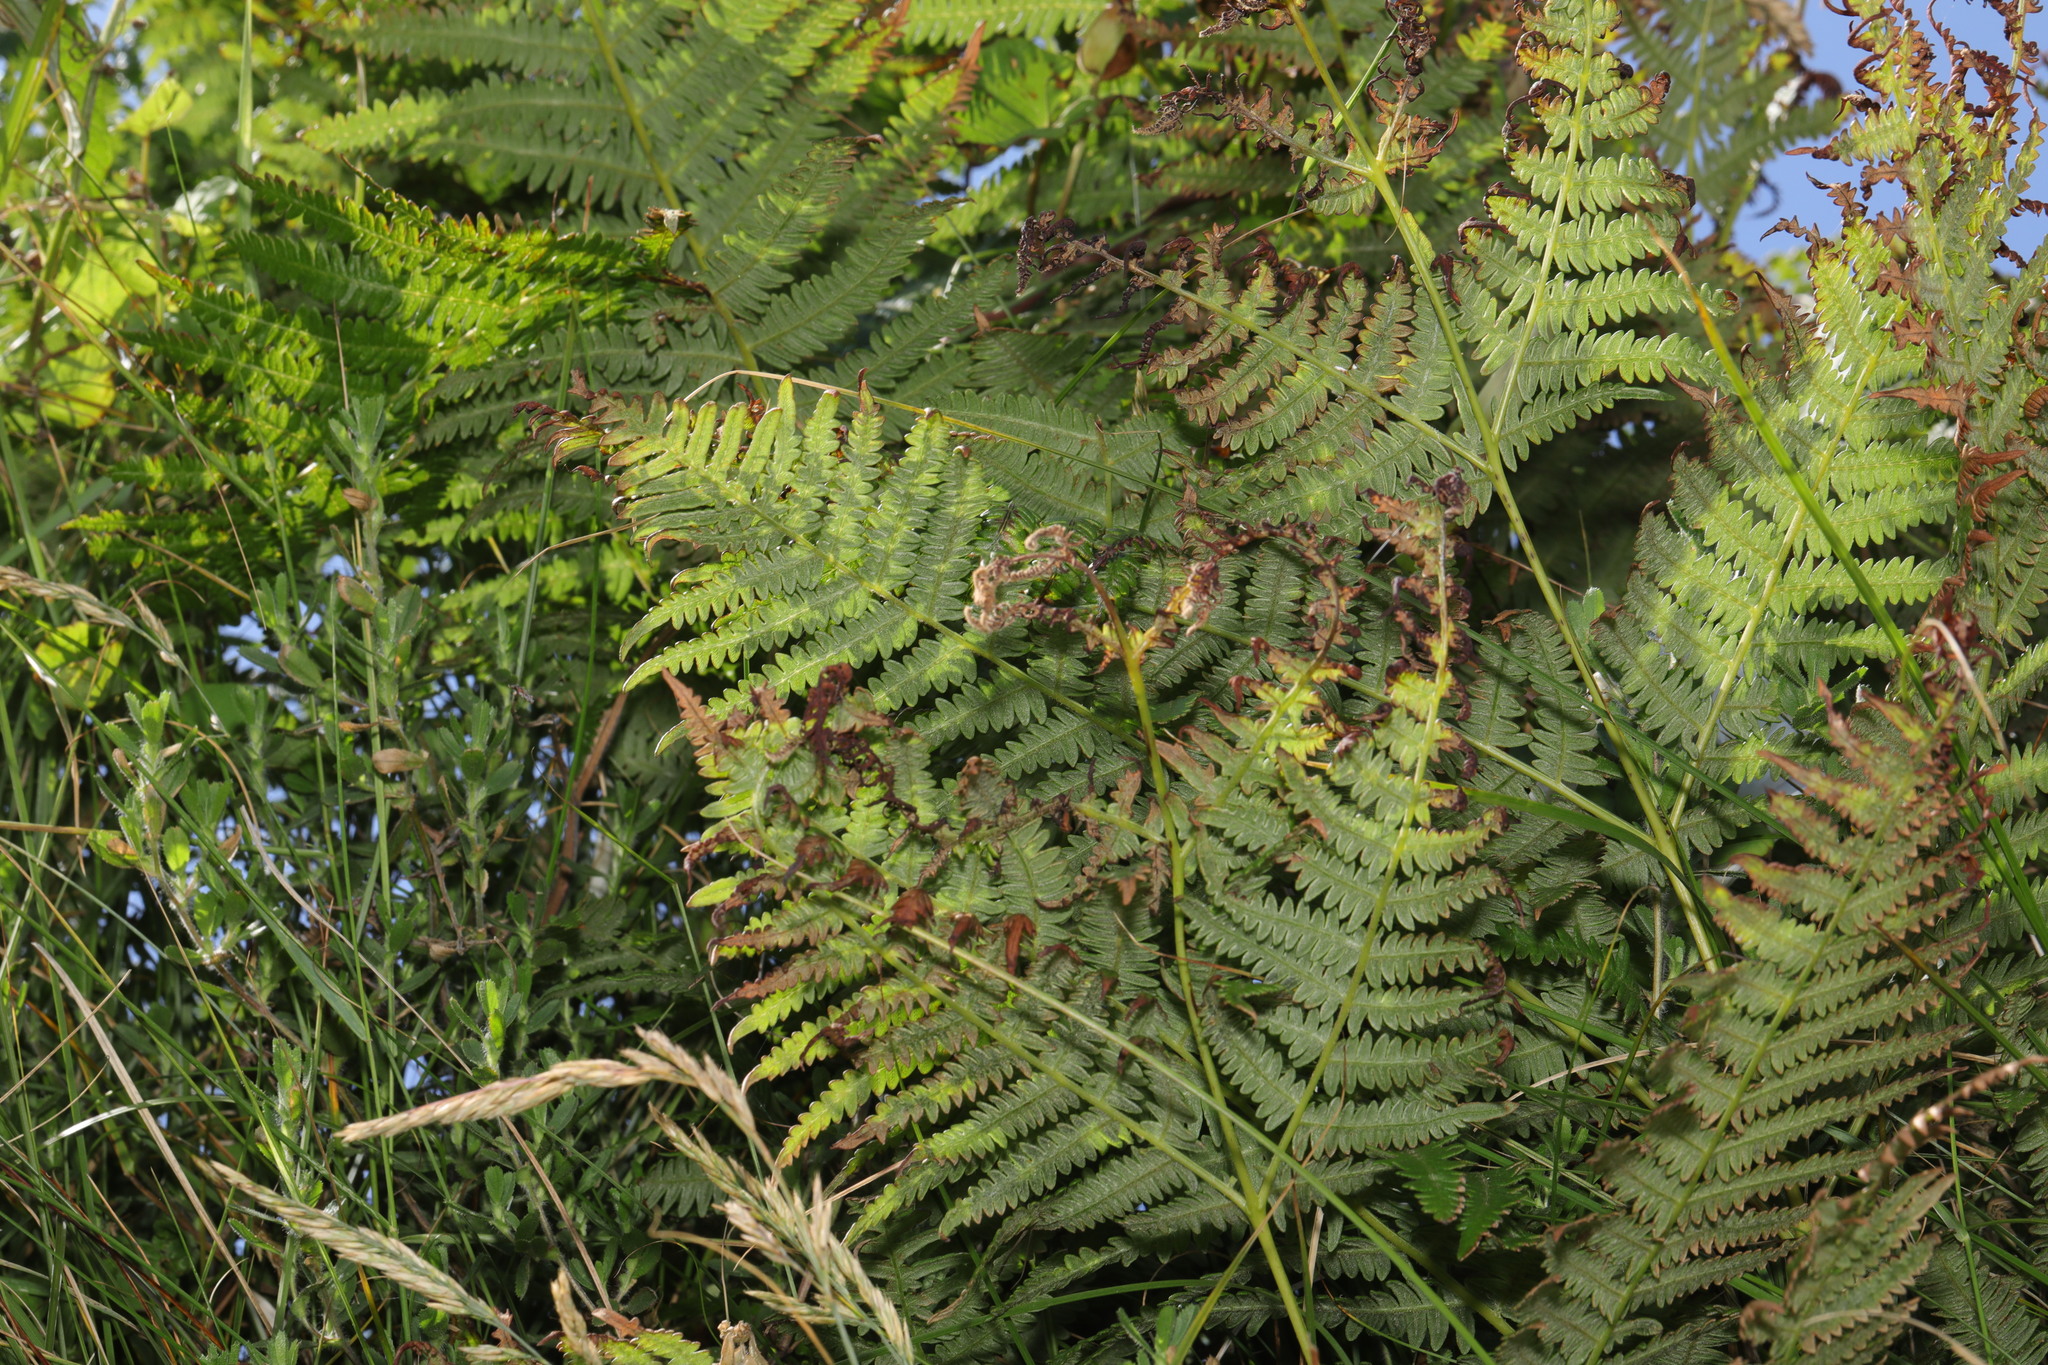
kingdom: Plantae
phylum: Tracheophyta
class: Polypodiopsida
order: Polypodiales
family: Dennstaedtiaceae
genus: Pteridium
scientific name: Pteridium aquilinum
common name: Bracken
